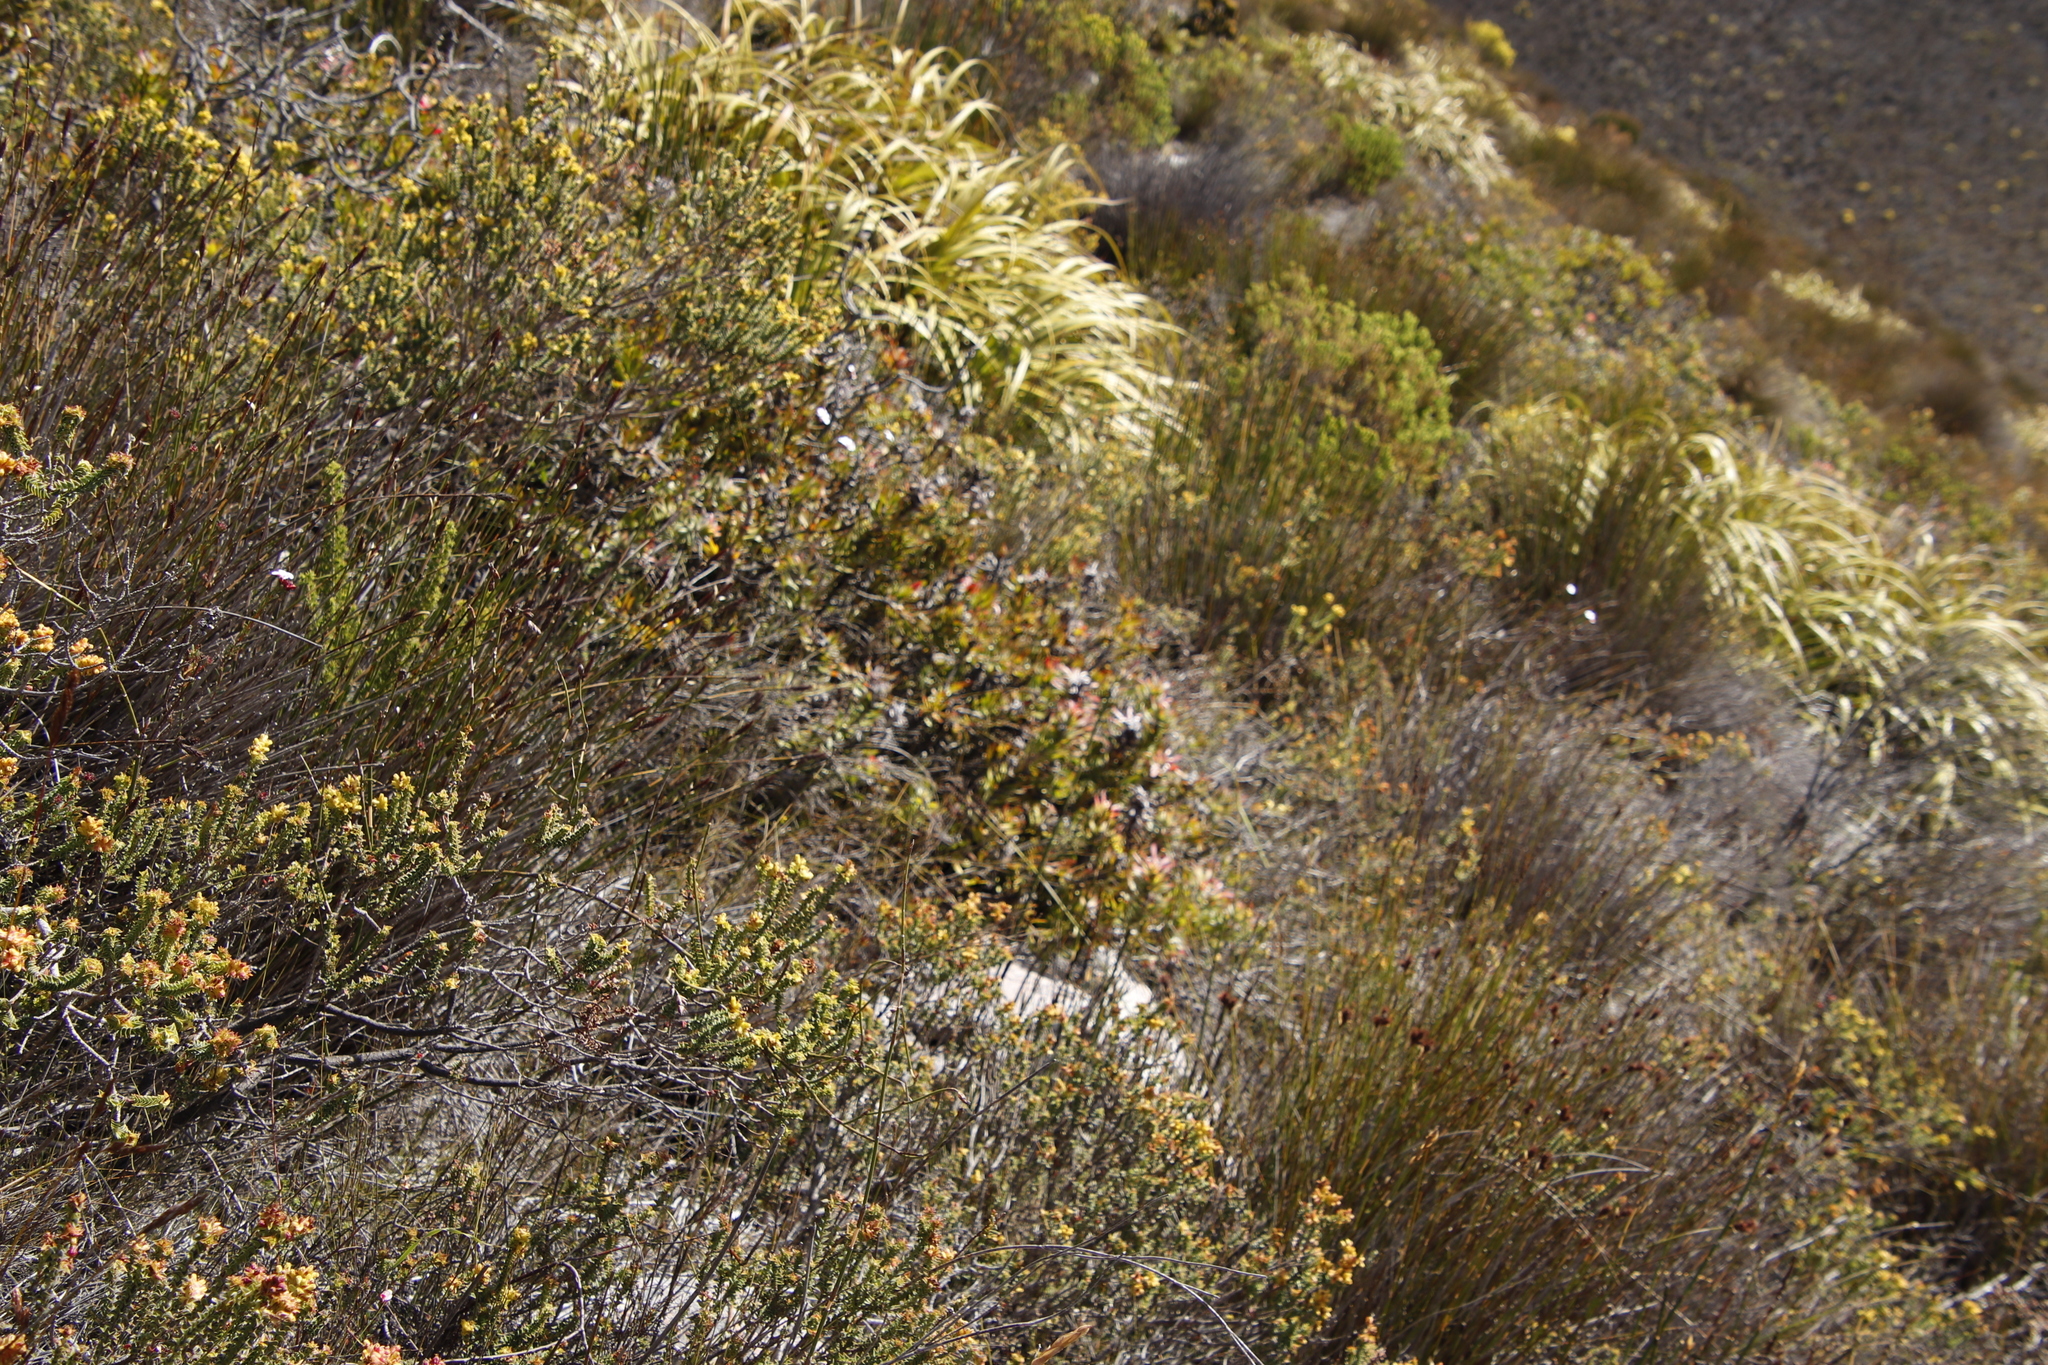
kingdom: Plantae
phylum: Tracheophyta
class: Magnoliopsida
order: Proteales
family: Proteaceae
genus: Mimetes
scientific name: Mimetes cucullatus
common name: Common pagoda
